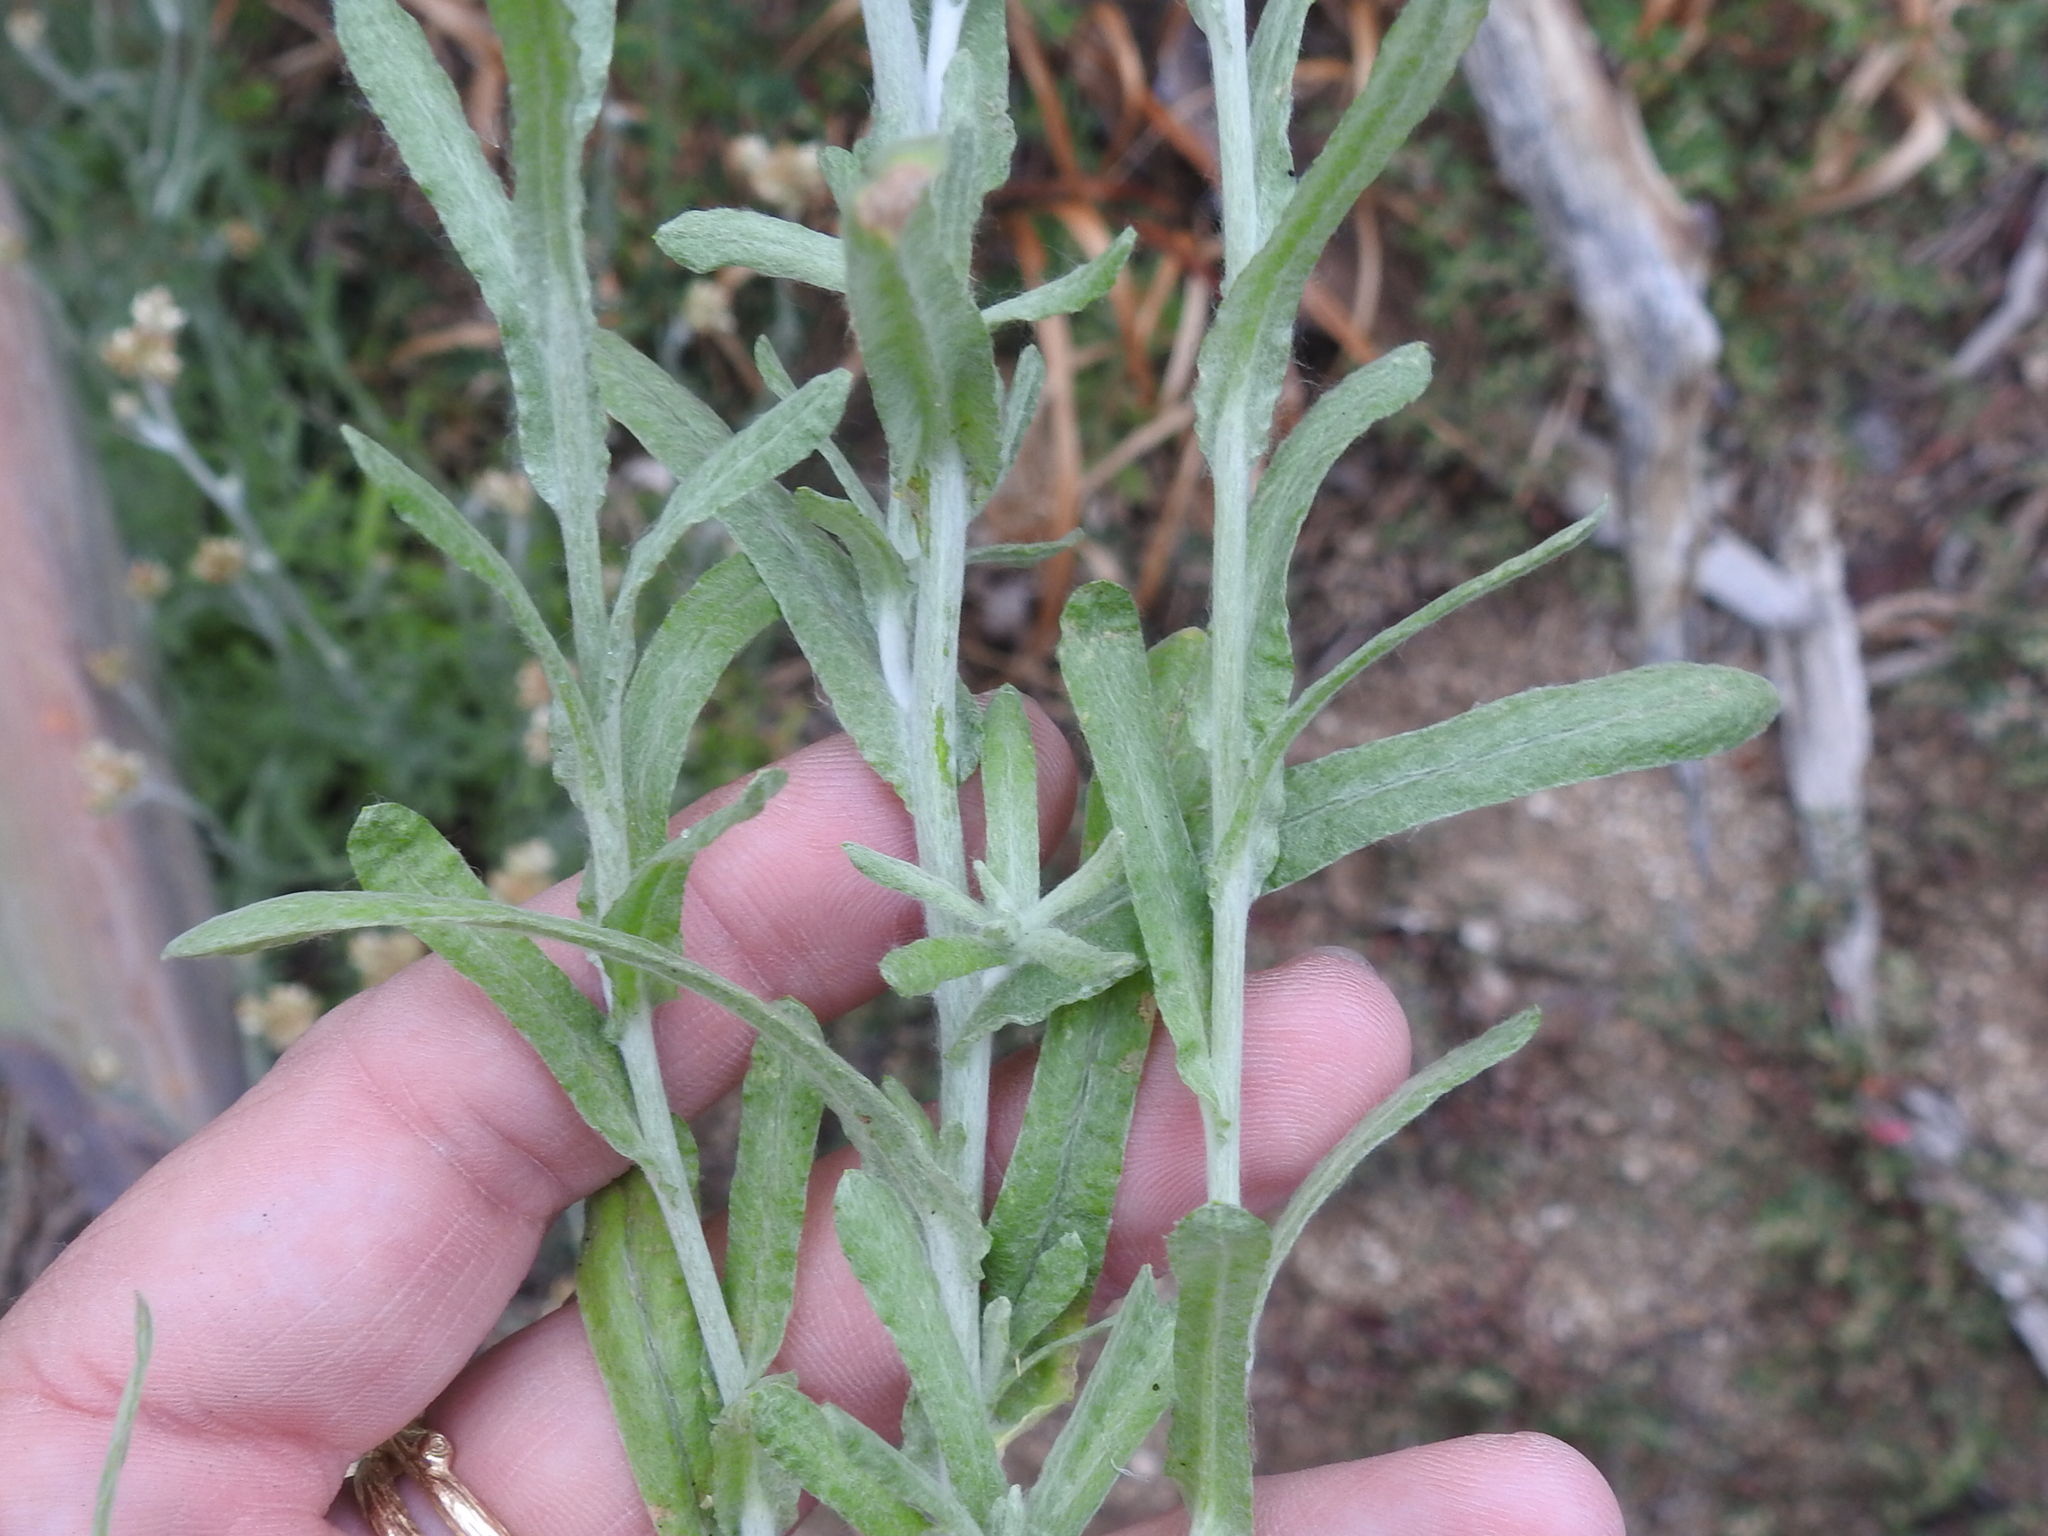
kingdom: Plantae
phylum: Tracheophyta
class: Magnoliopsida
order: Asterales
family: Asteraceae
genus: Helichrysum
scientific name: Helichrysum luteoalbum
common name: Daisy
